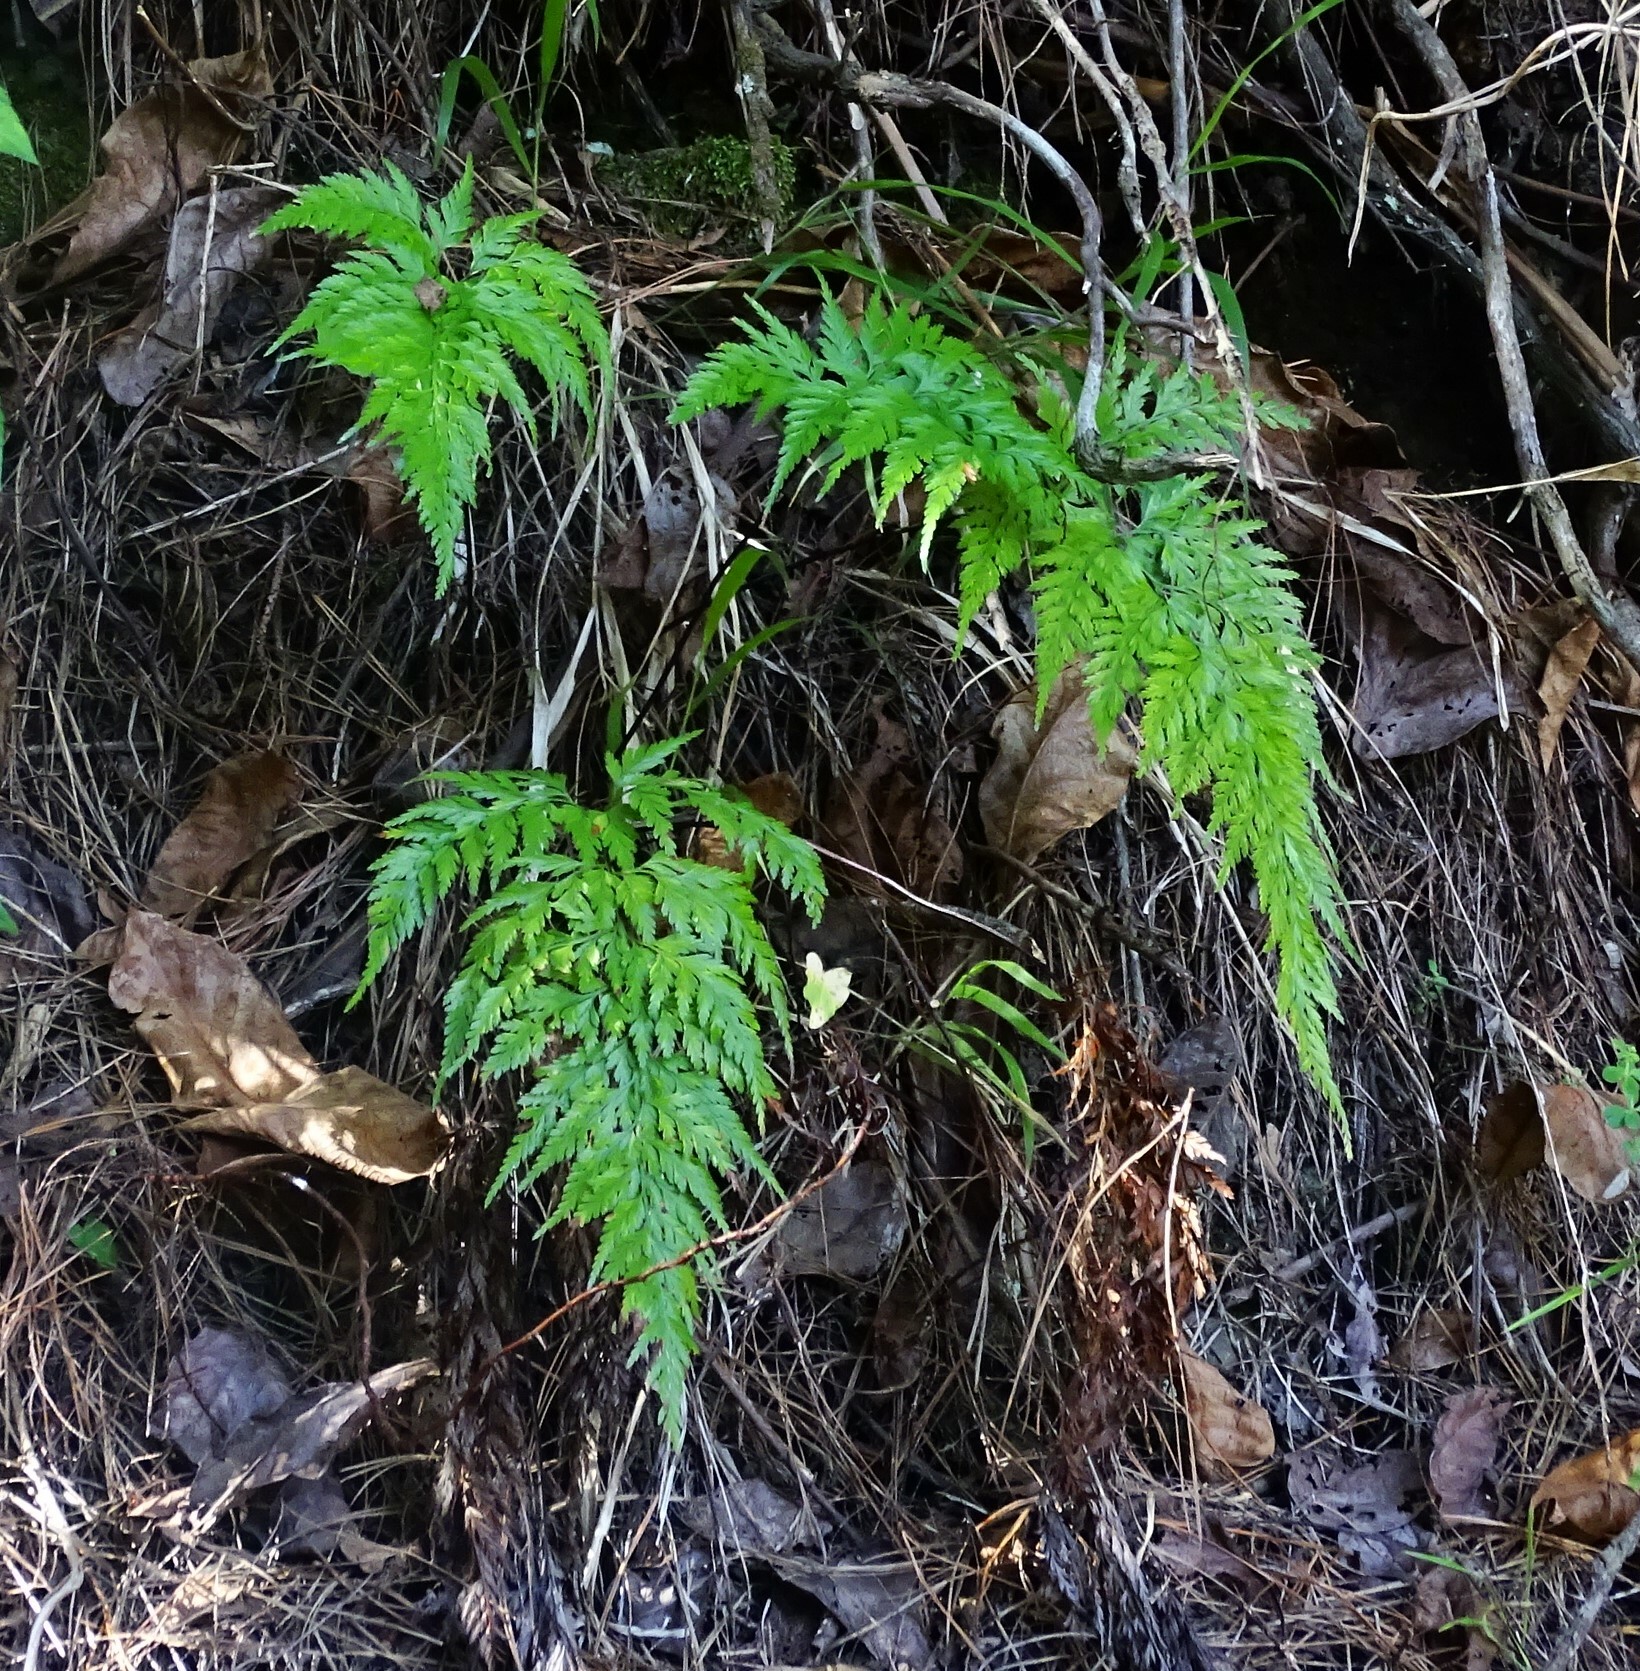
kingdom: Plantae
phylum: Tracheophyta
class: Polypodiopsida
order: Polypodiales
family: Aspleniaceae
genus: Asplenium
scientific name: Asplenium onopteris
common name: Irish spleenwort
